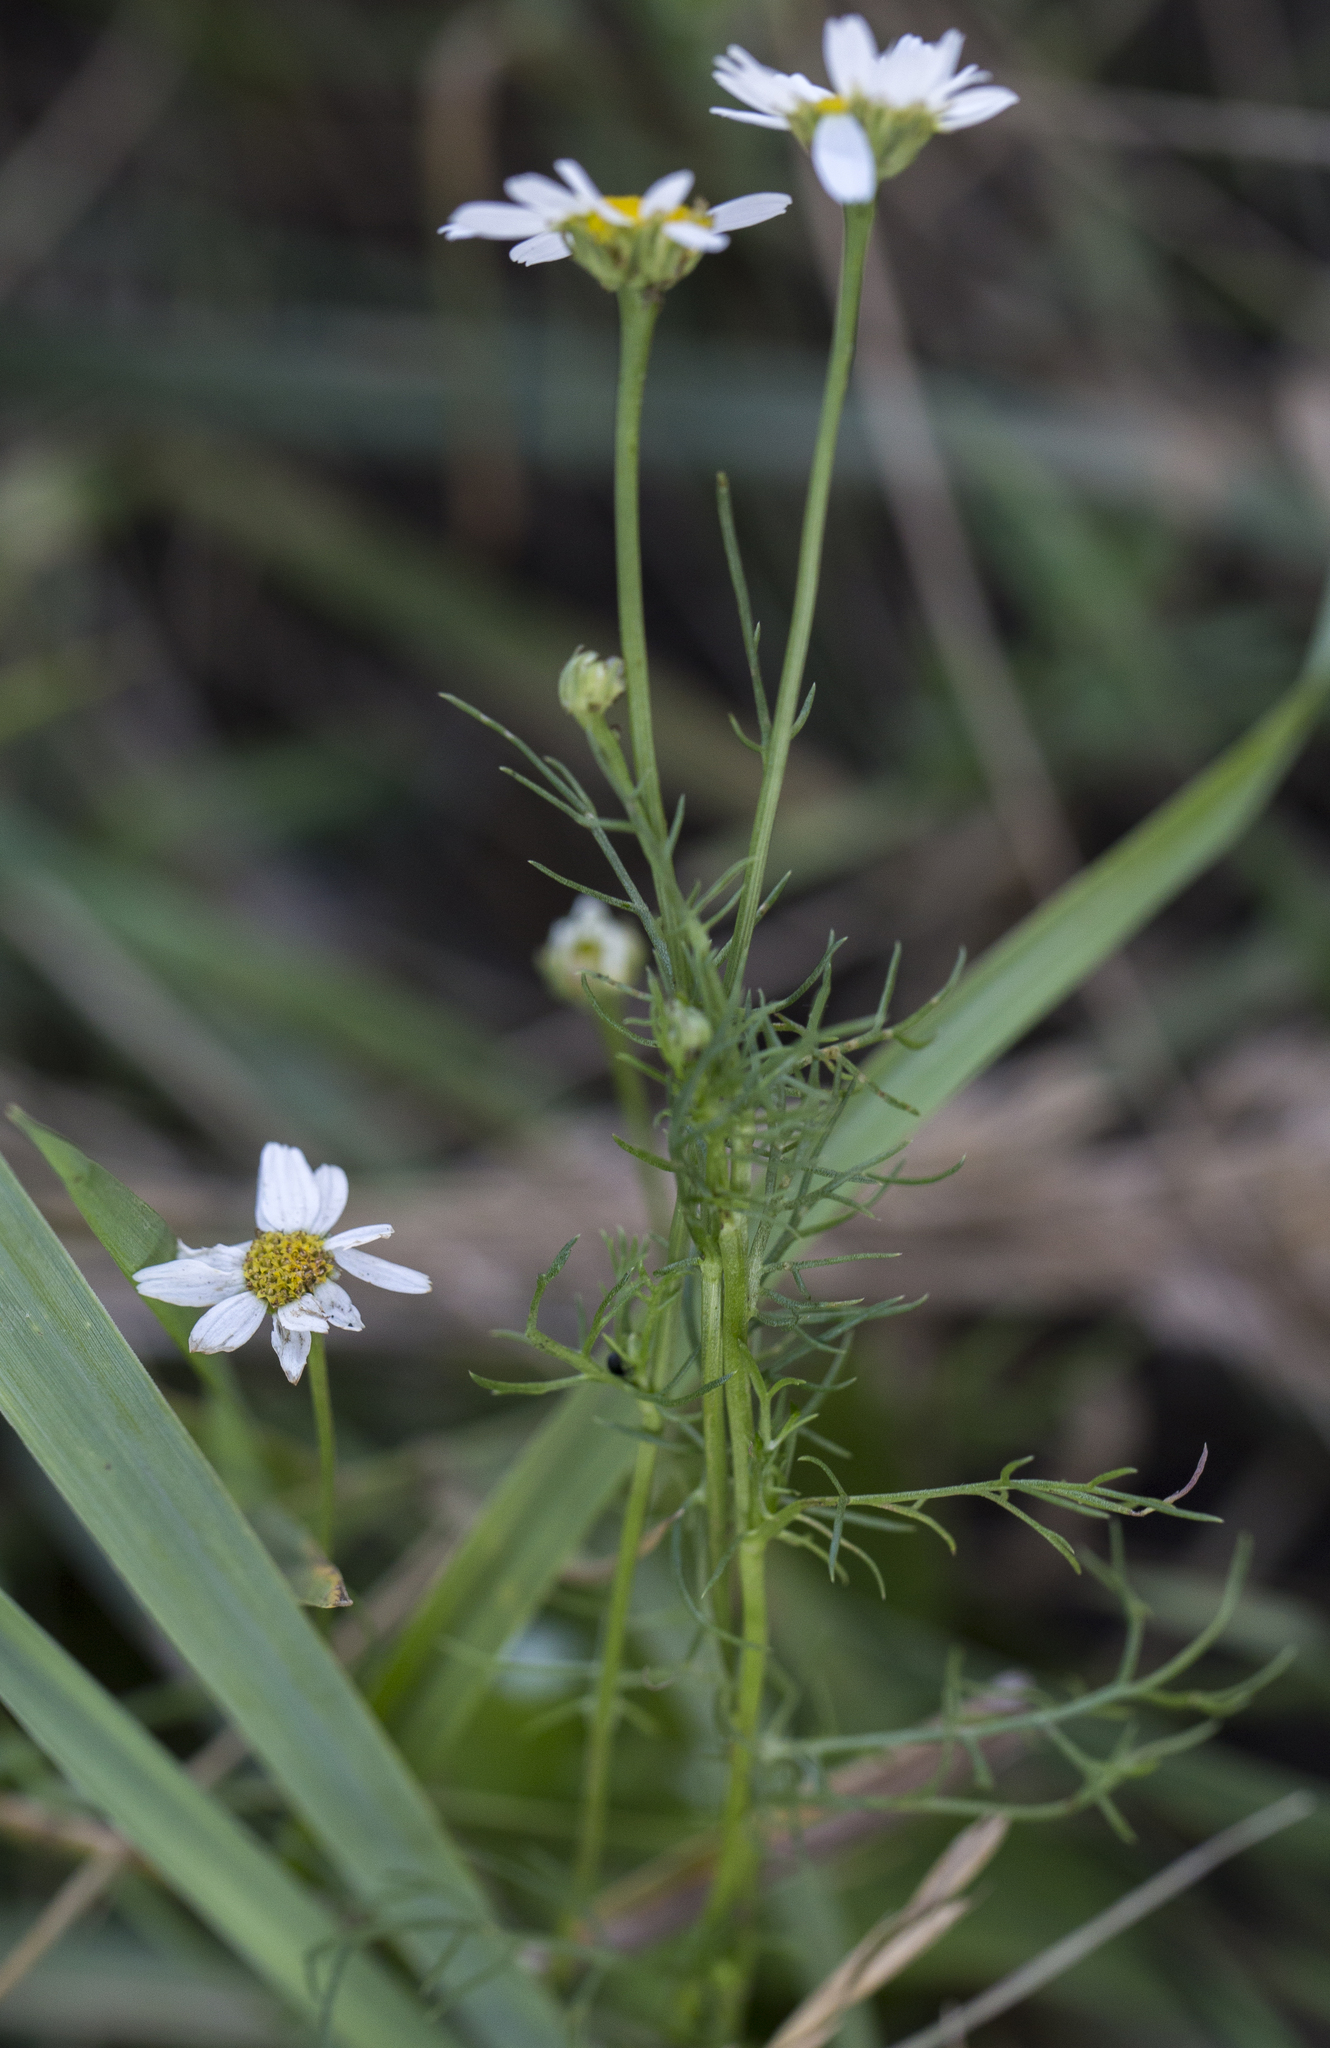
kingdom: Plantae
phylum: Tracheophyta
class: Magnoliopsida
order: Asterales
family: Asteraceae
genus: Tripleurospermum
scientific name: Tripleurospermum inodorum
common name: Scentless mayweed
